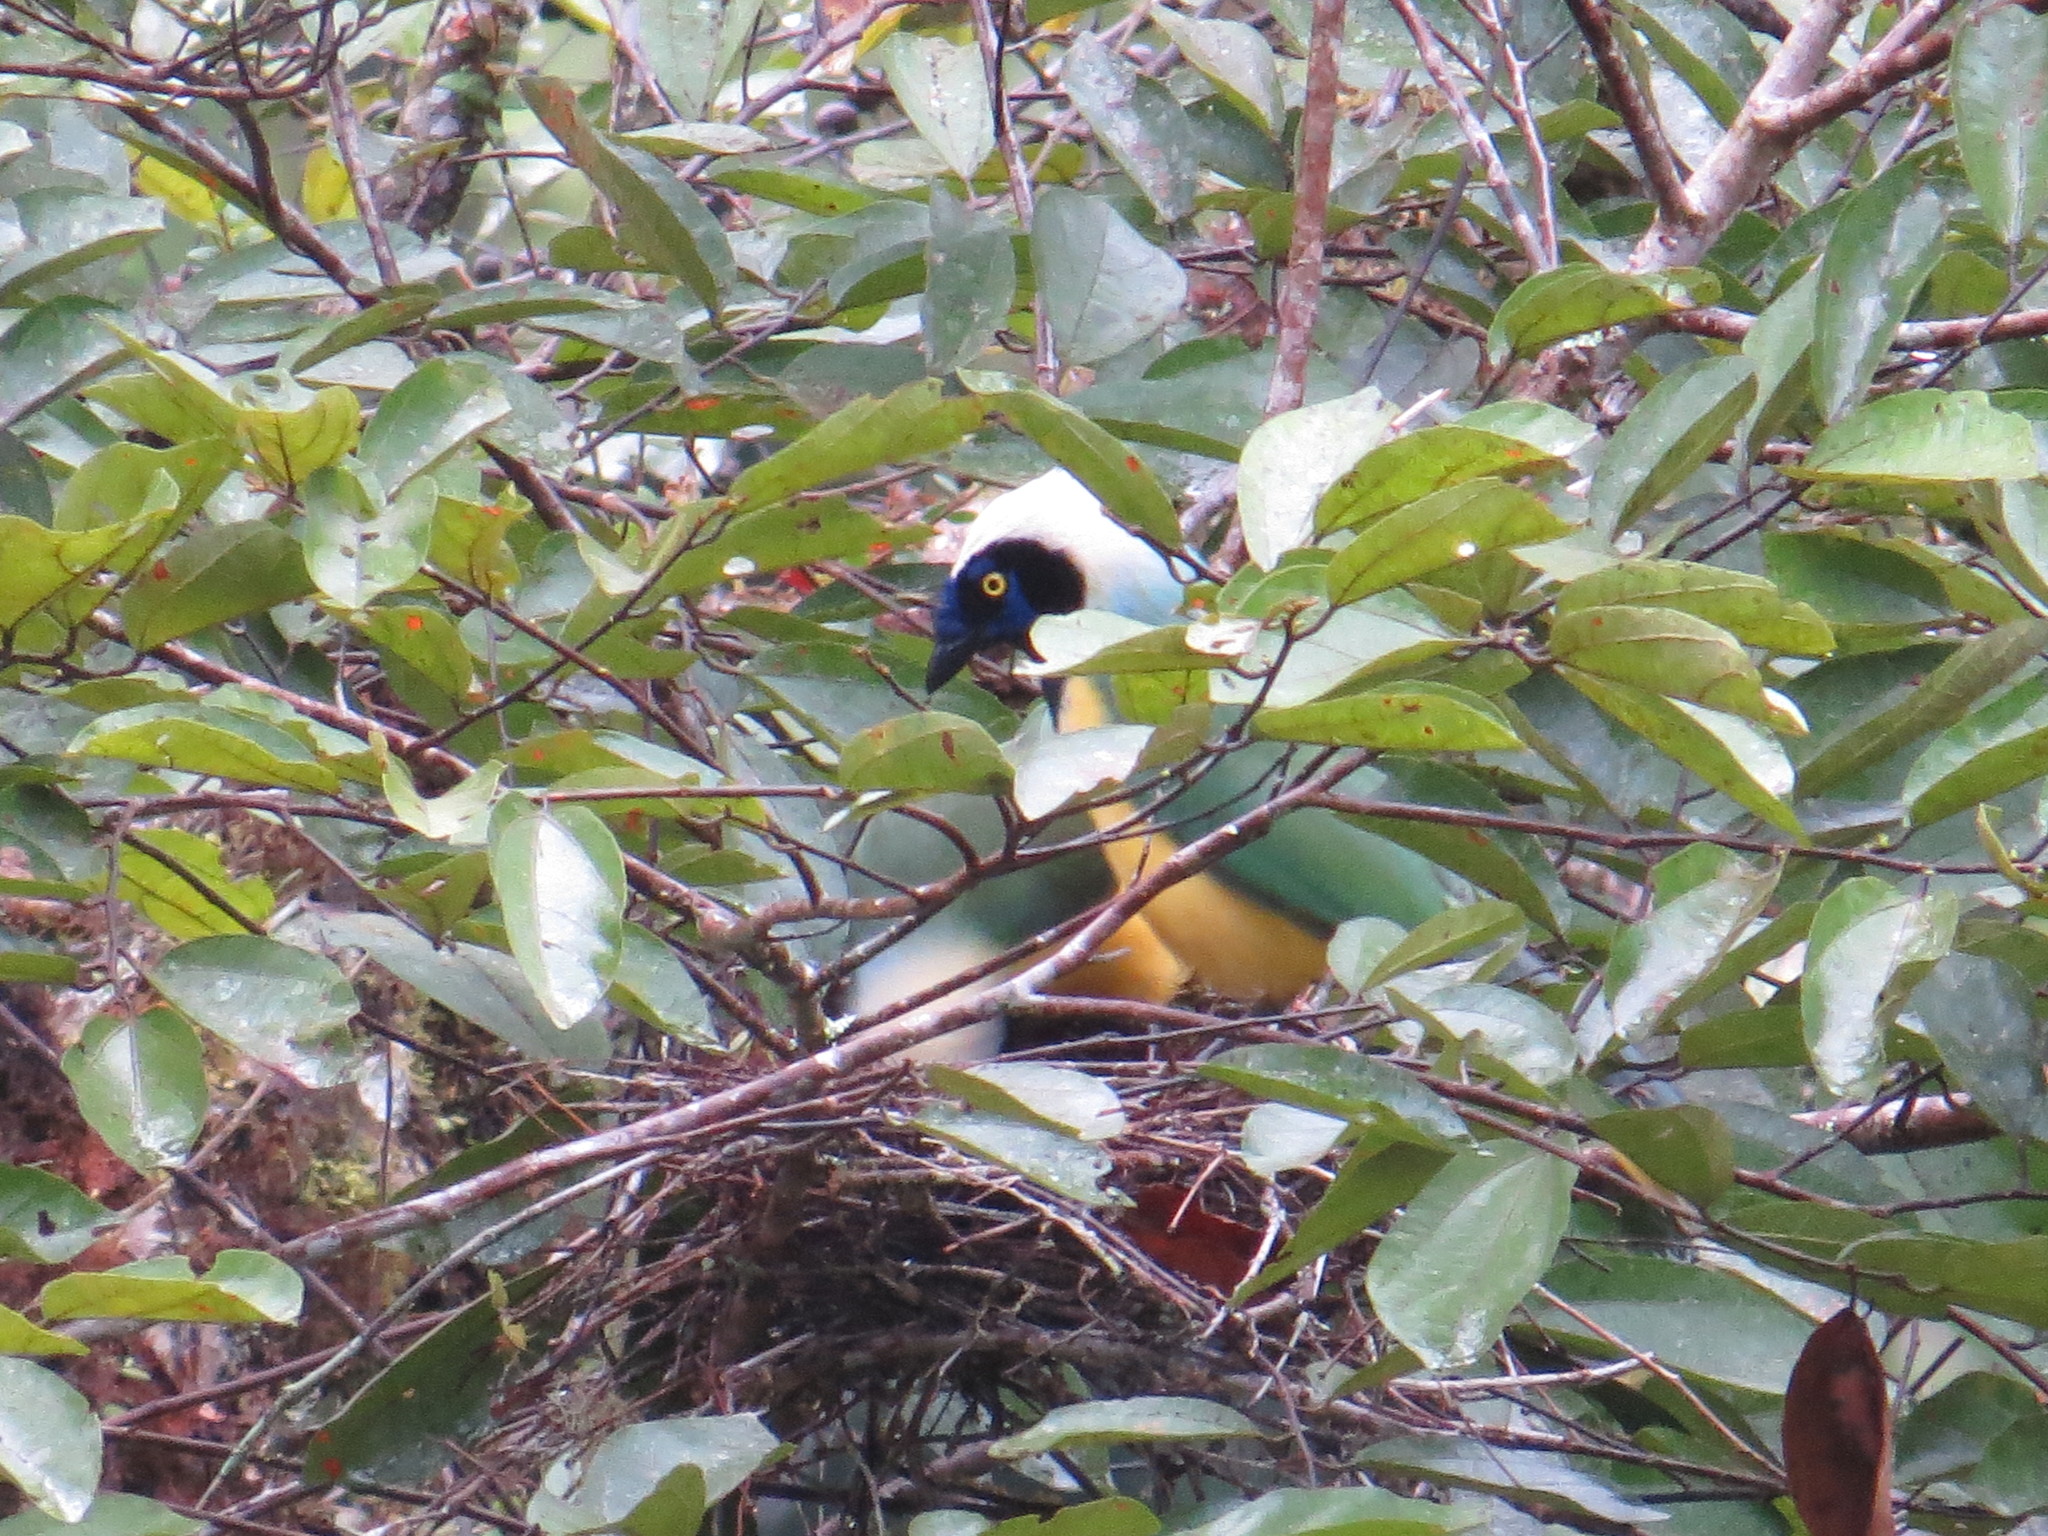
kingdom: Animalia
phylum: Chordata
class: Aves
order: Passeriformes
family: Corvidae
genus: Cyanocorax
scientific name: Cyanocorax yncas
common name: Green jay
